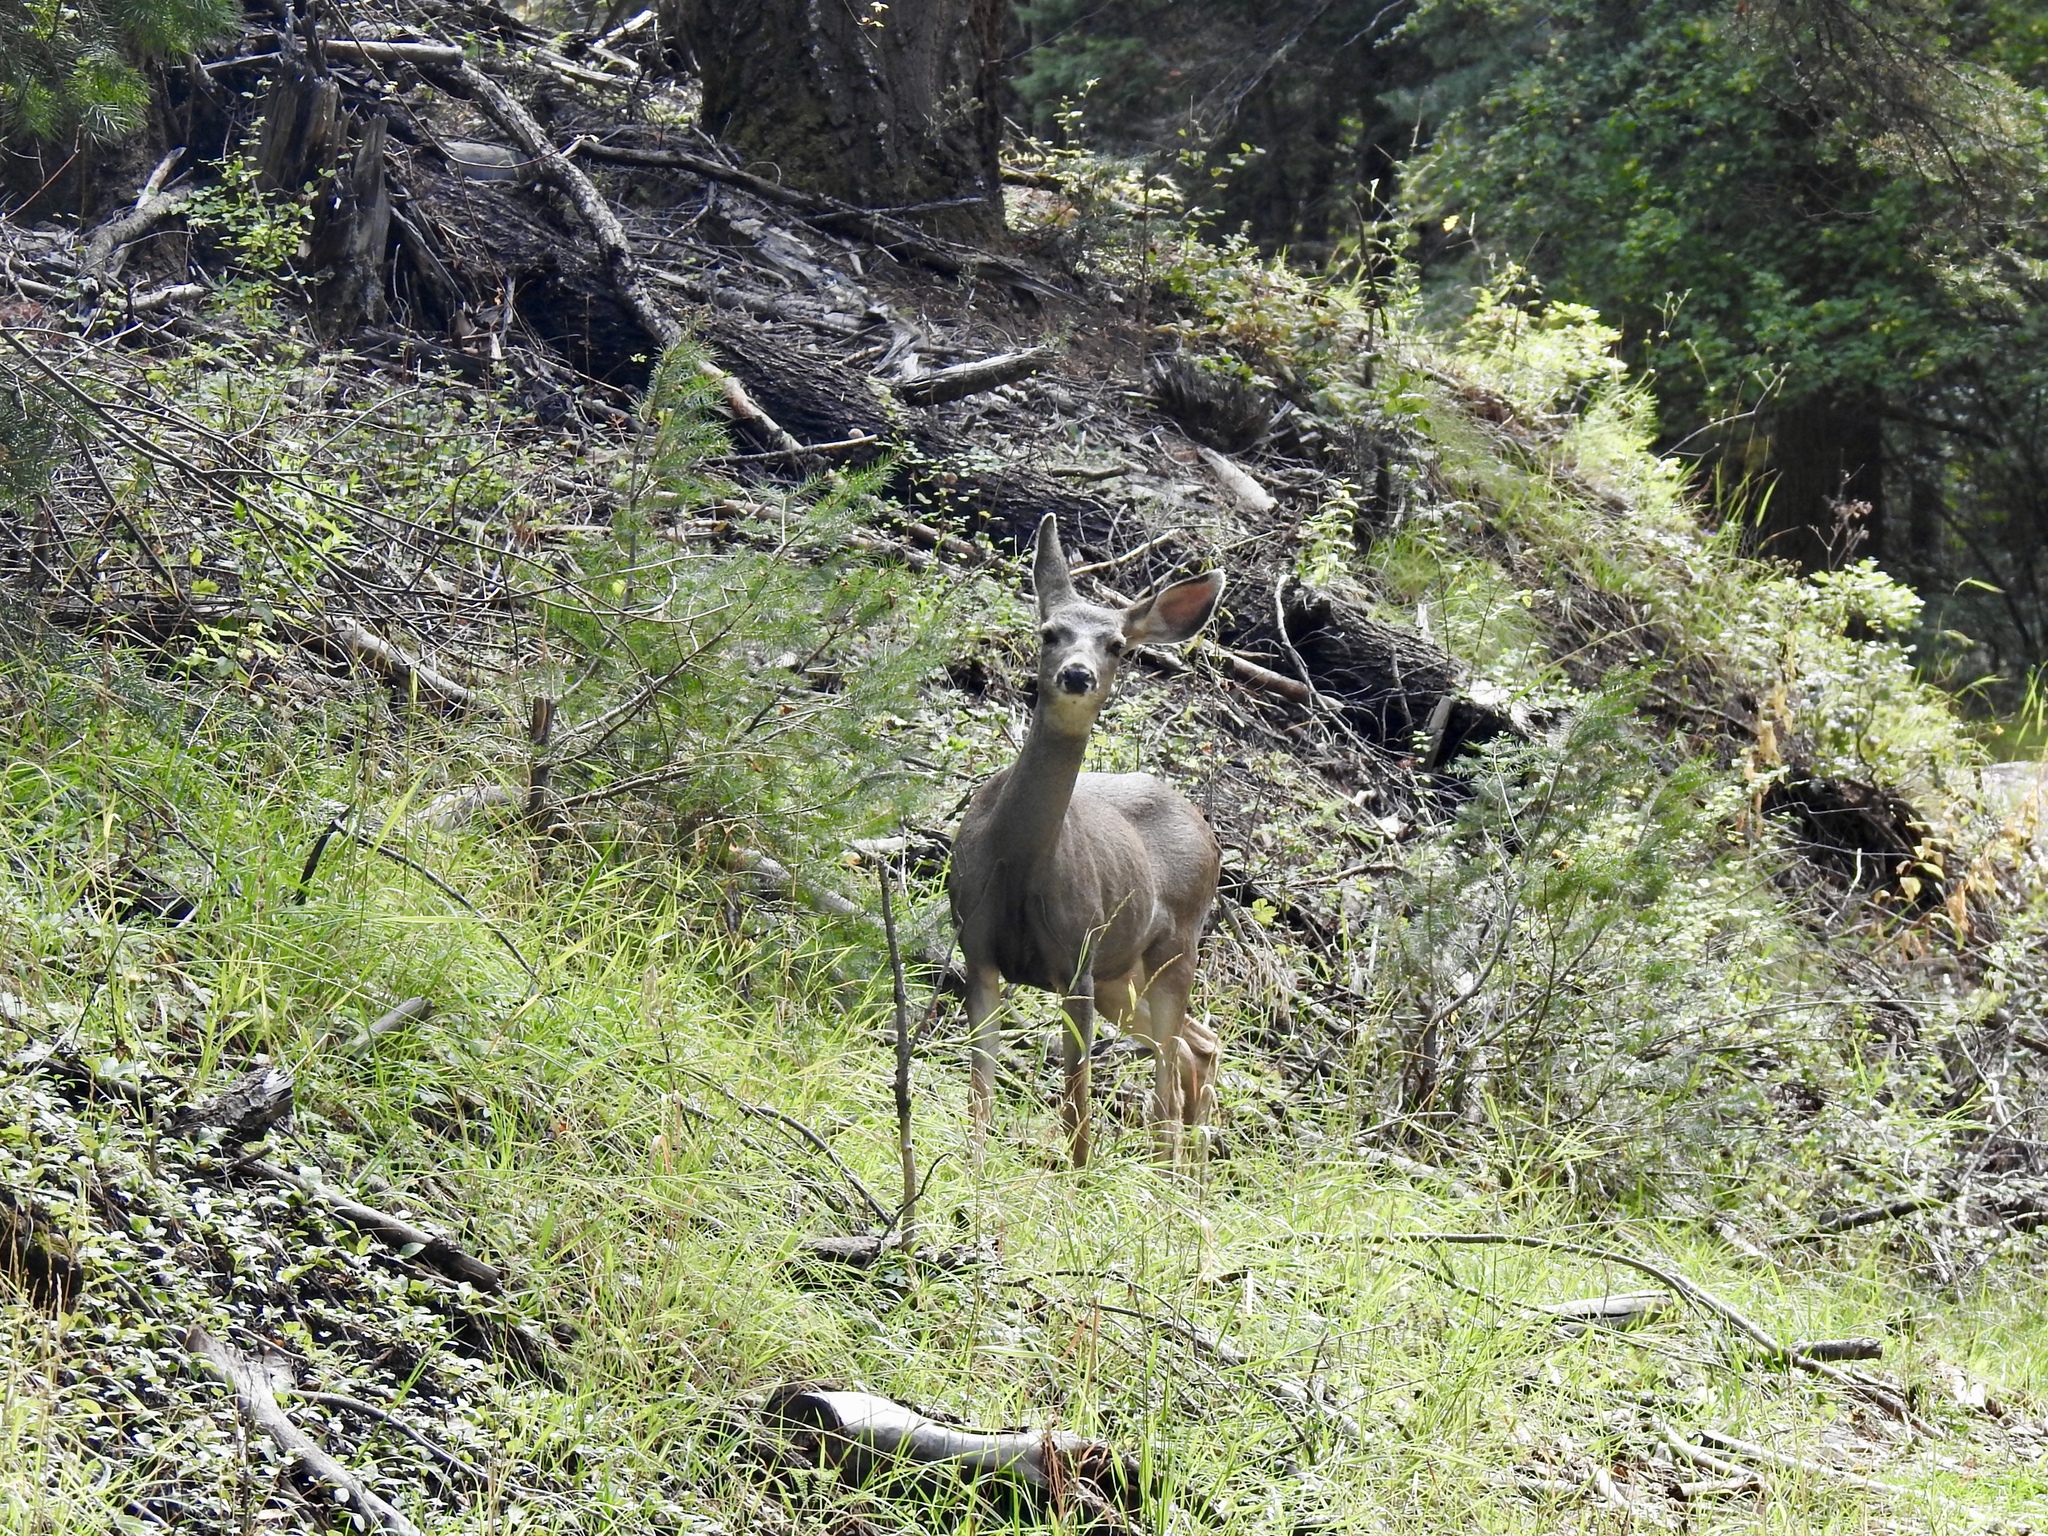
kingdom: Animalia
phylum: Chordata
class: Mammalia
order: Artiodactyla
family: Cervidae
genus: Odocoileus
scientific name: Odocoileus hemionus
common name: Mule deer
